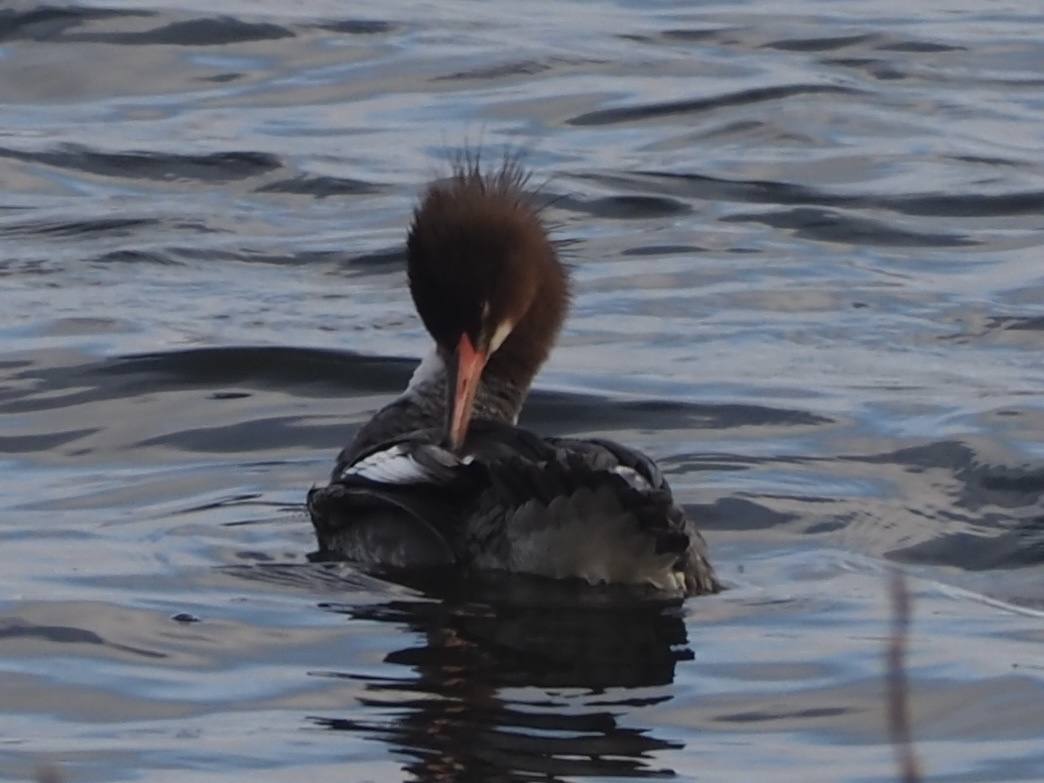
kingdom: Animalia
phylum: Chordata
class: Aves
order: Anseriformes
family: Anatidae
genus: Mergus
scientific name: Mergus merganser
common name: Common merganser
